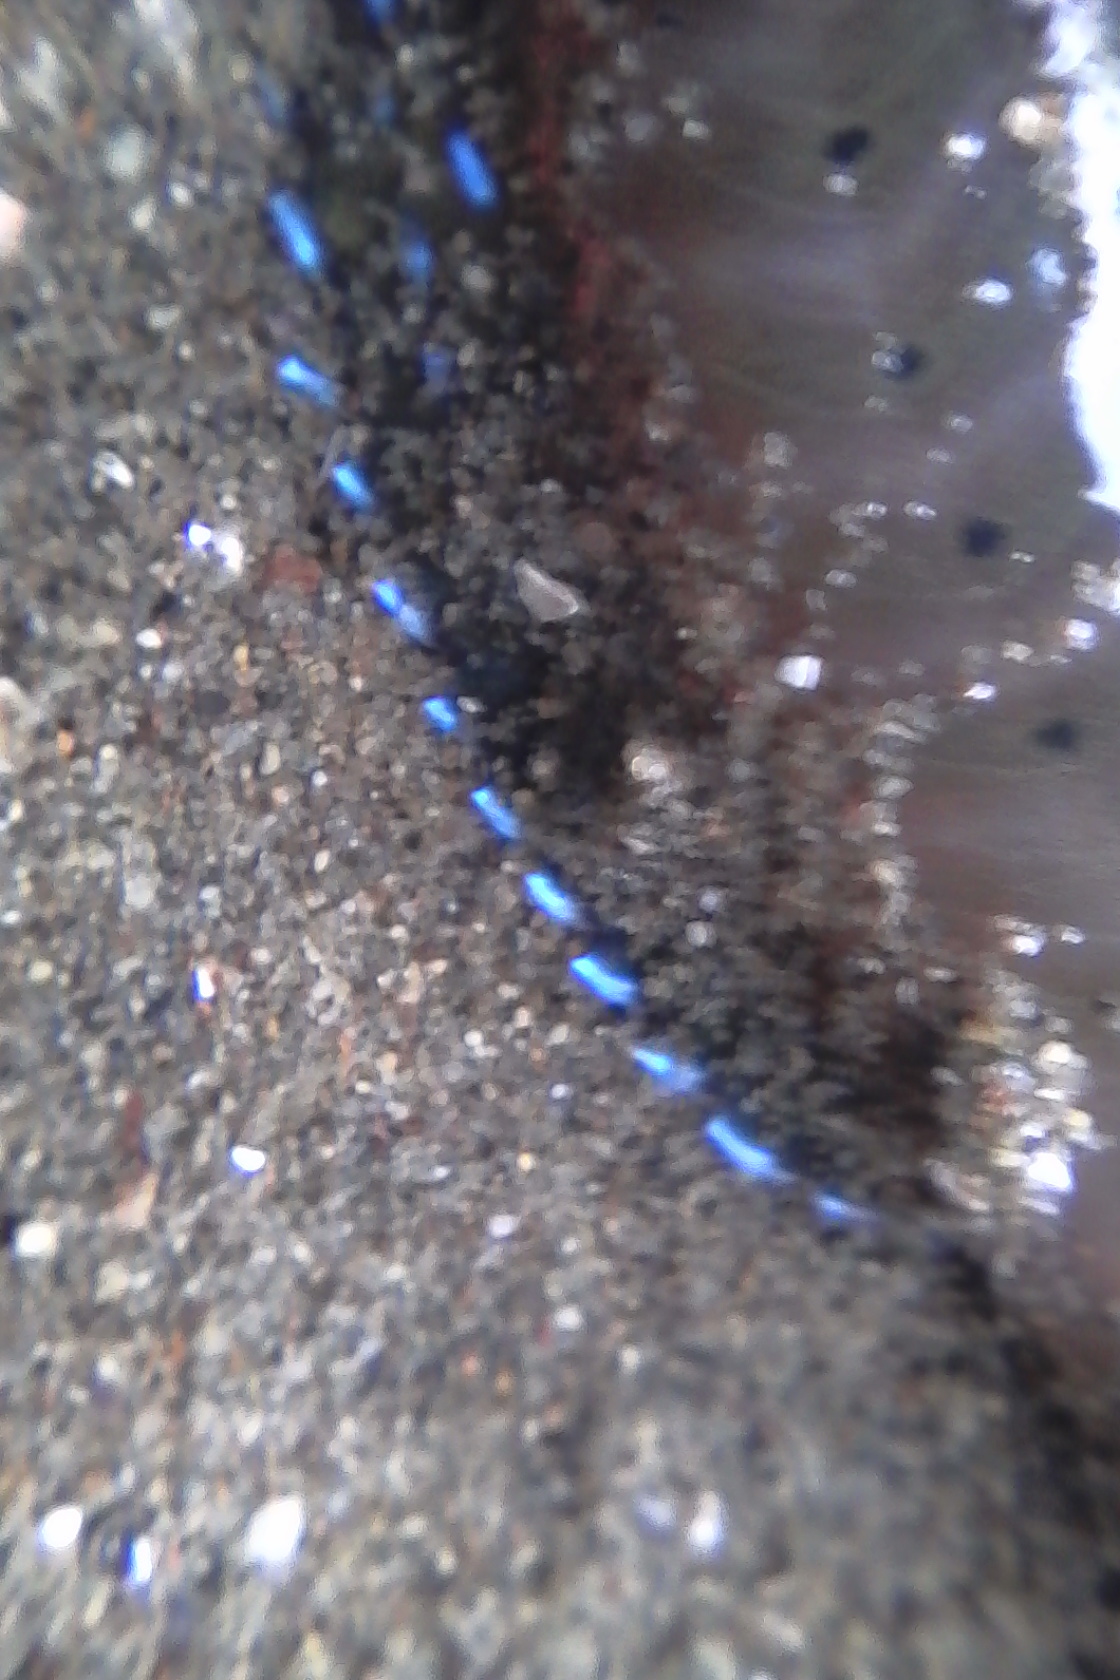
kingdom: Animalia
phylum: Chordata
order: Perciformes
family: Blenniidae
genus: Omobranchus
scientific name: Omobranchus anolius
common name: Oyster blenny
